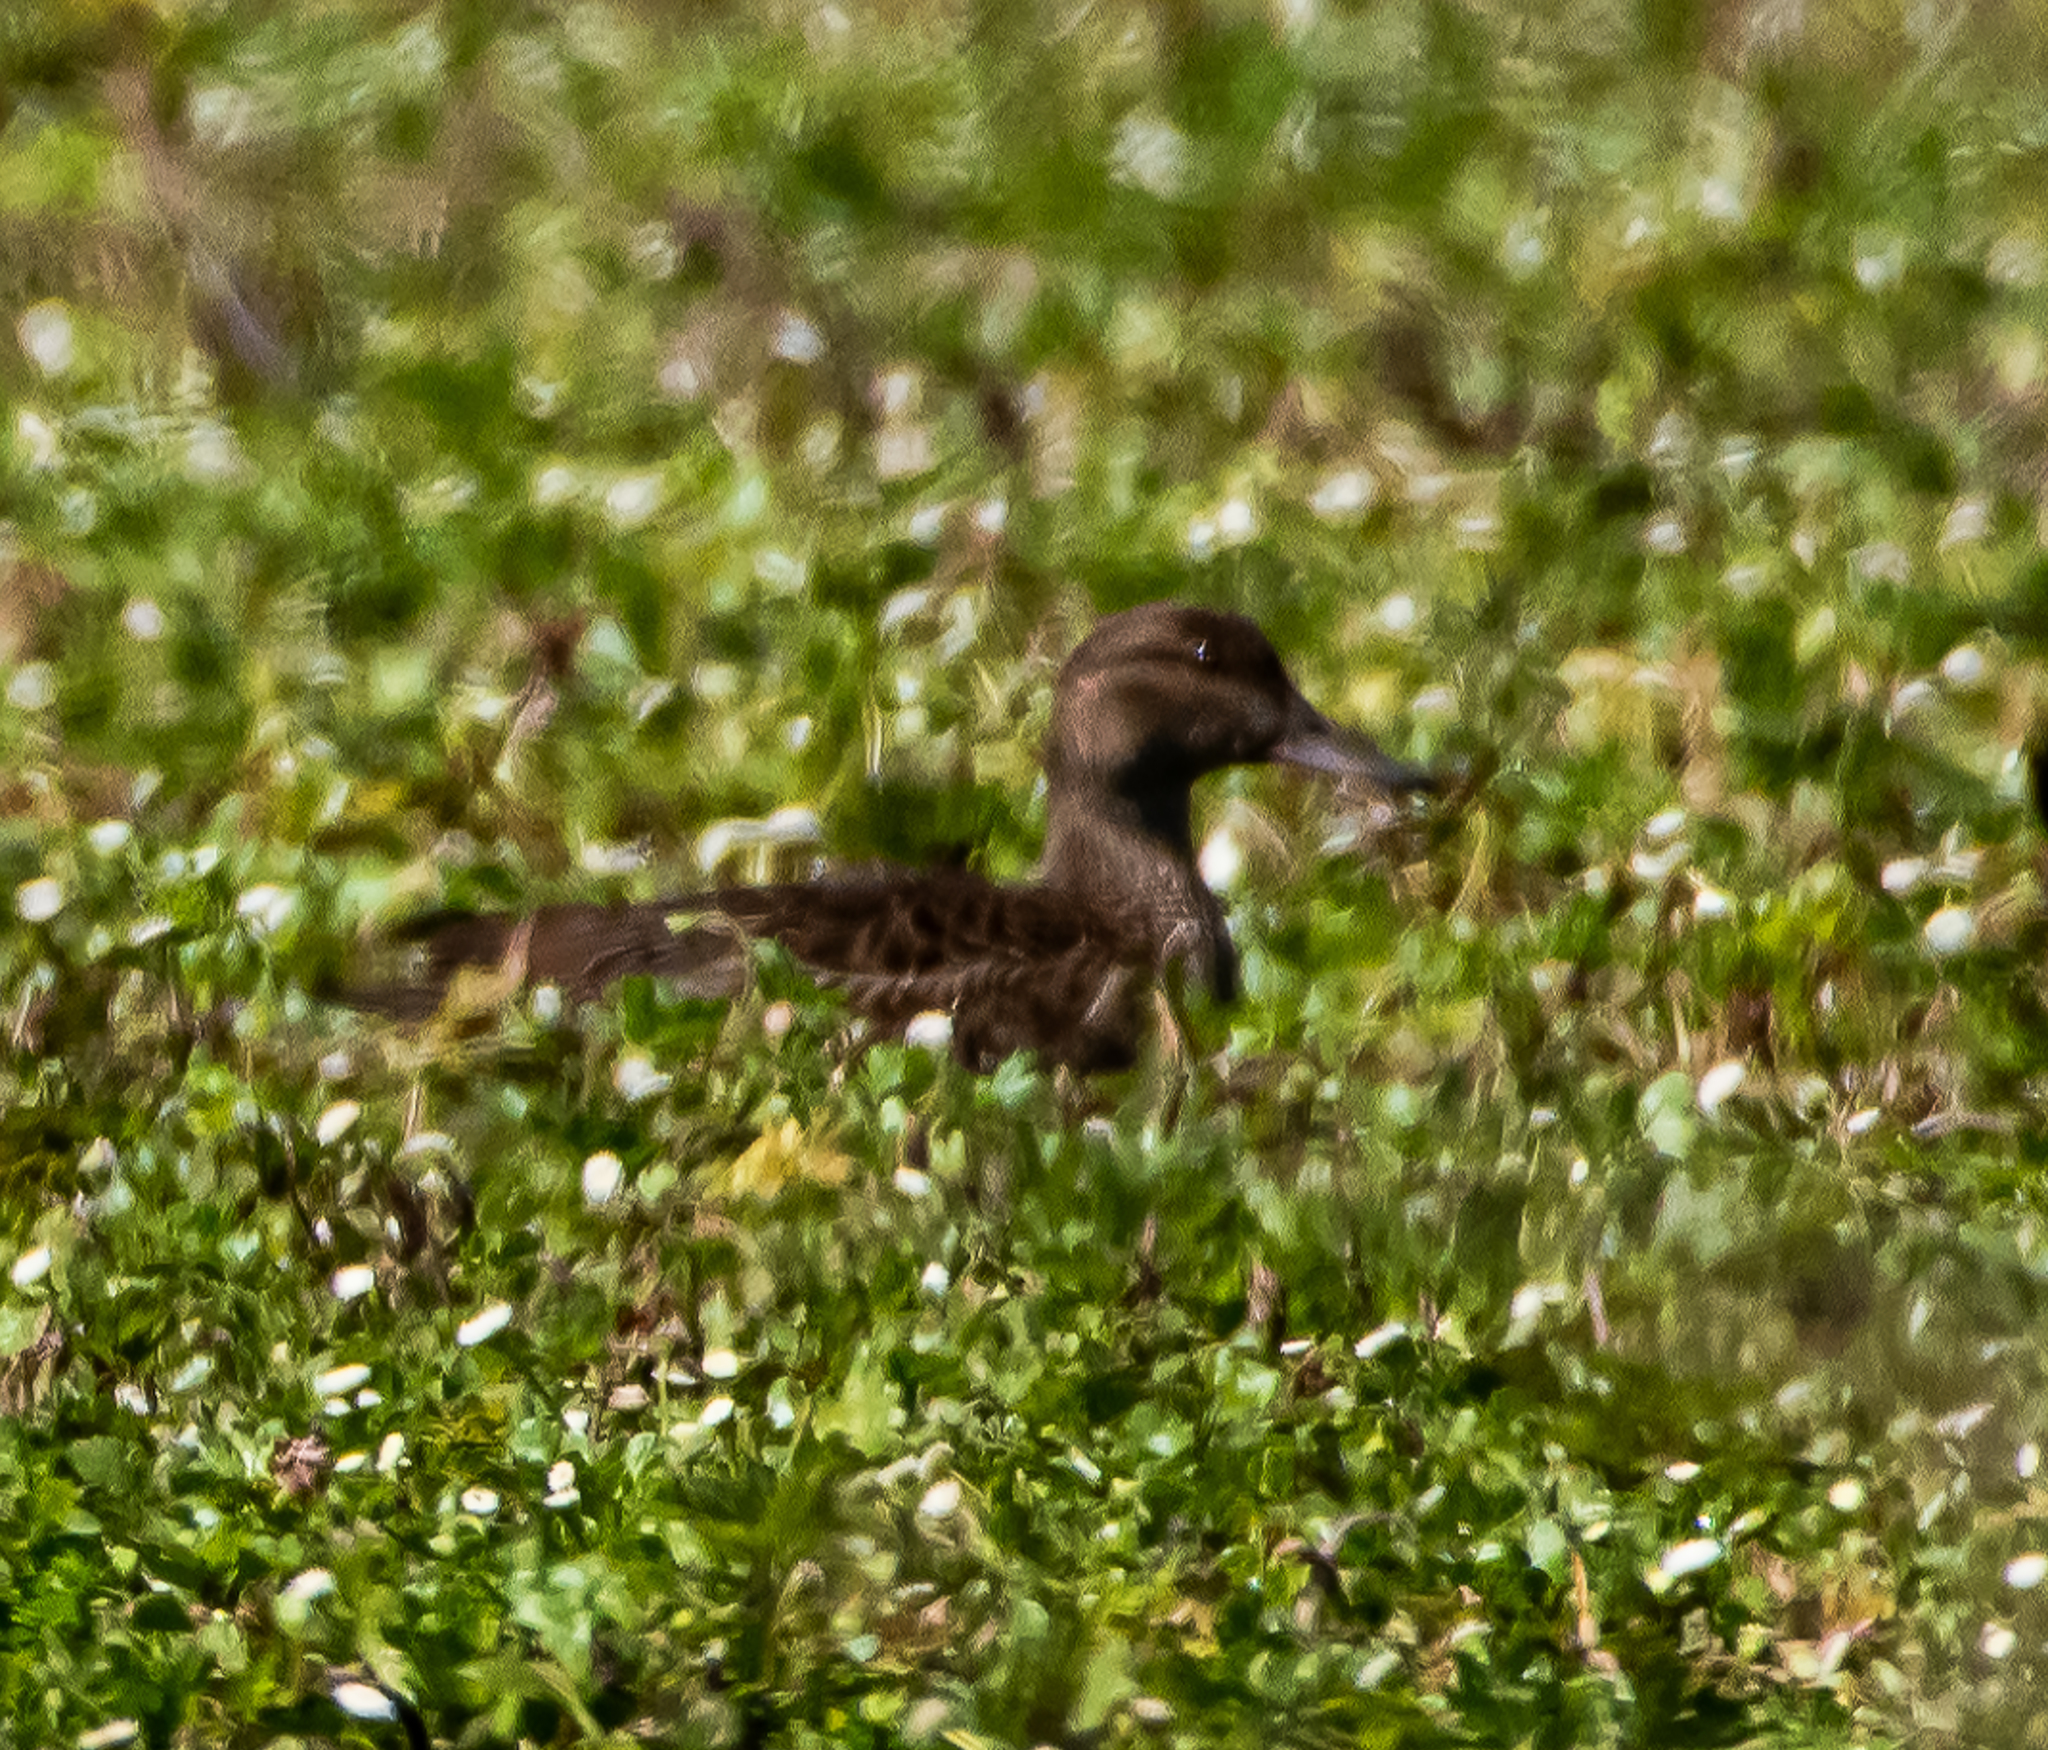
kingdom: Animalia
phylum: Chordata
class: Aves
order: Anseriformes
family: Anatidae
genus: Anas
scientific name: Anas diazi
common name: Mexican duck
